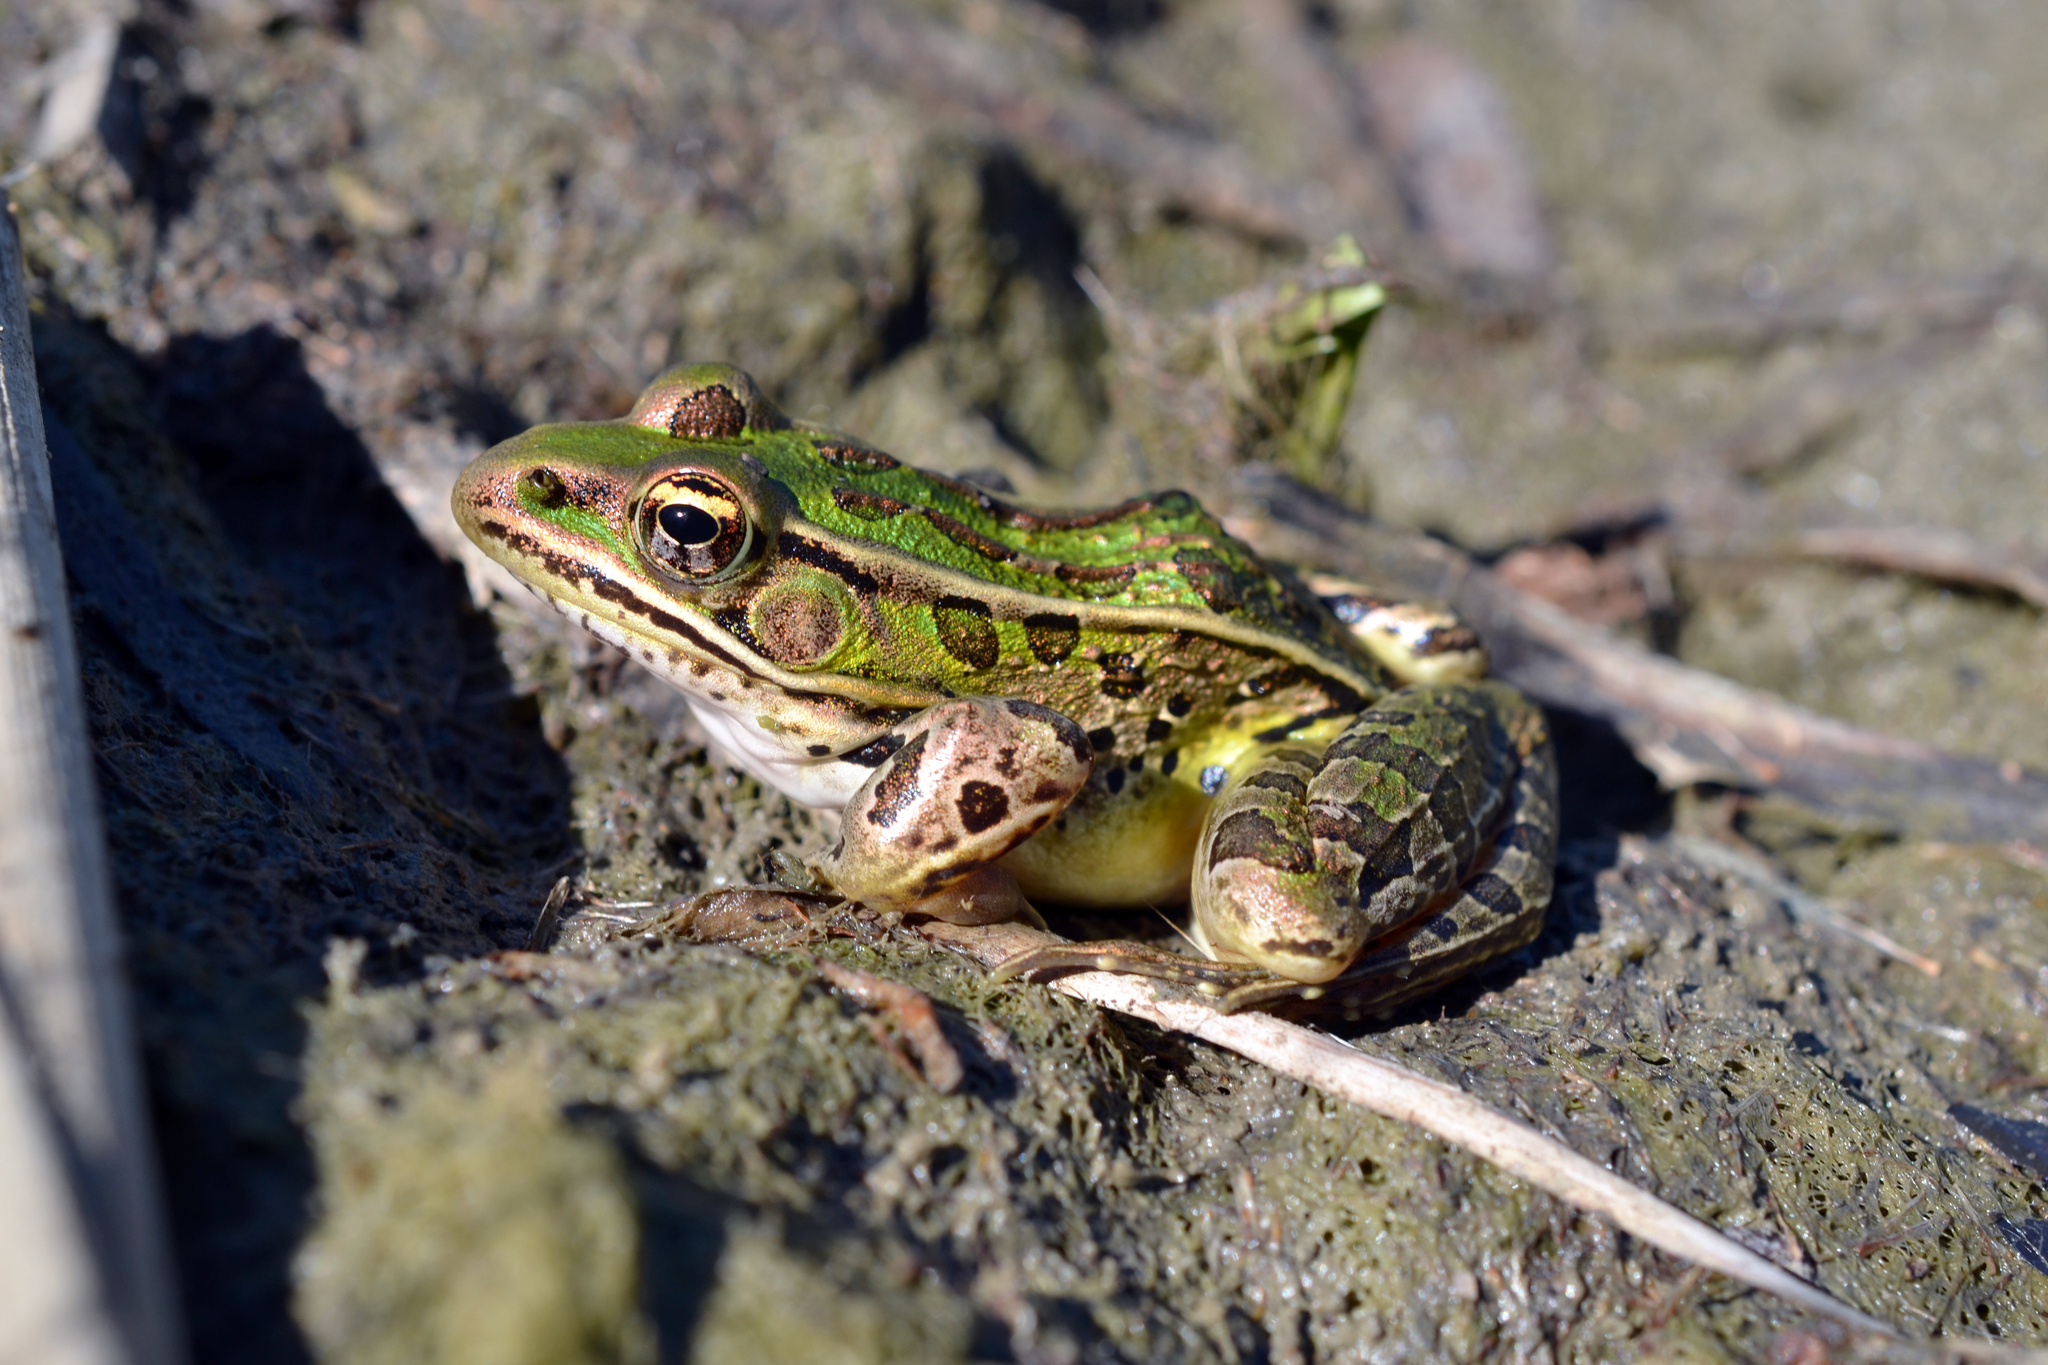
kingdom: Animalia
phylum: Chordata
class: Amphibia
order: Anura
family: Ranidae
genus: Lithobates
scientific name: Lithobates pipiens
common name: Northern leopard frog
